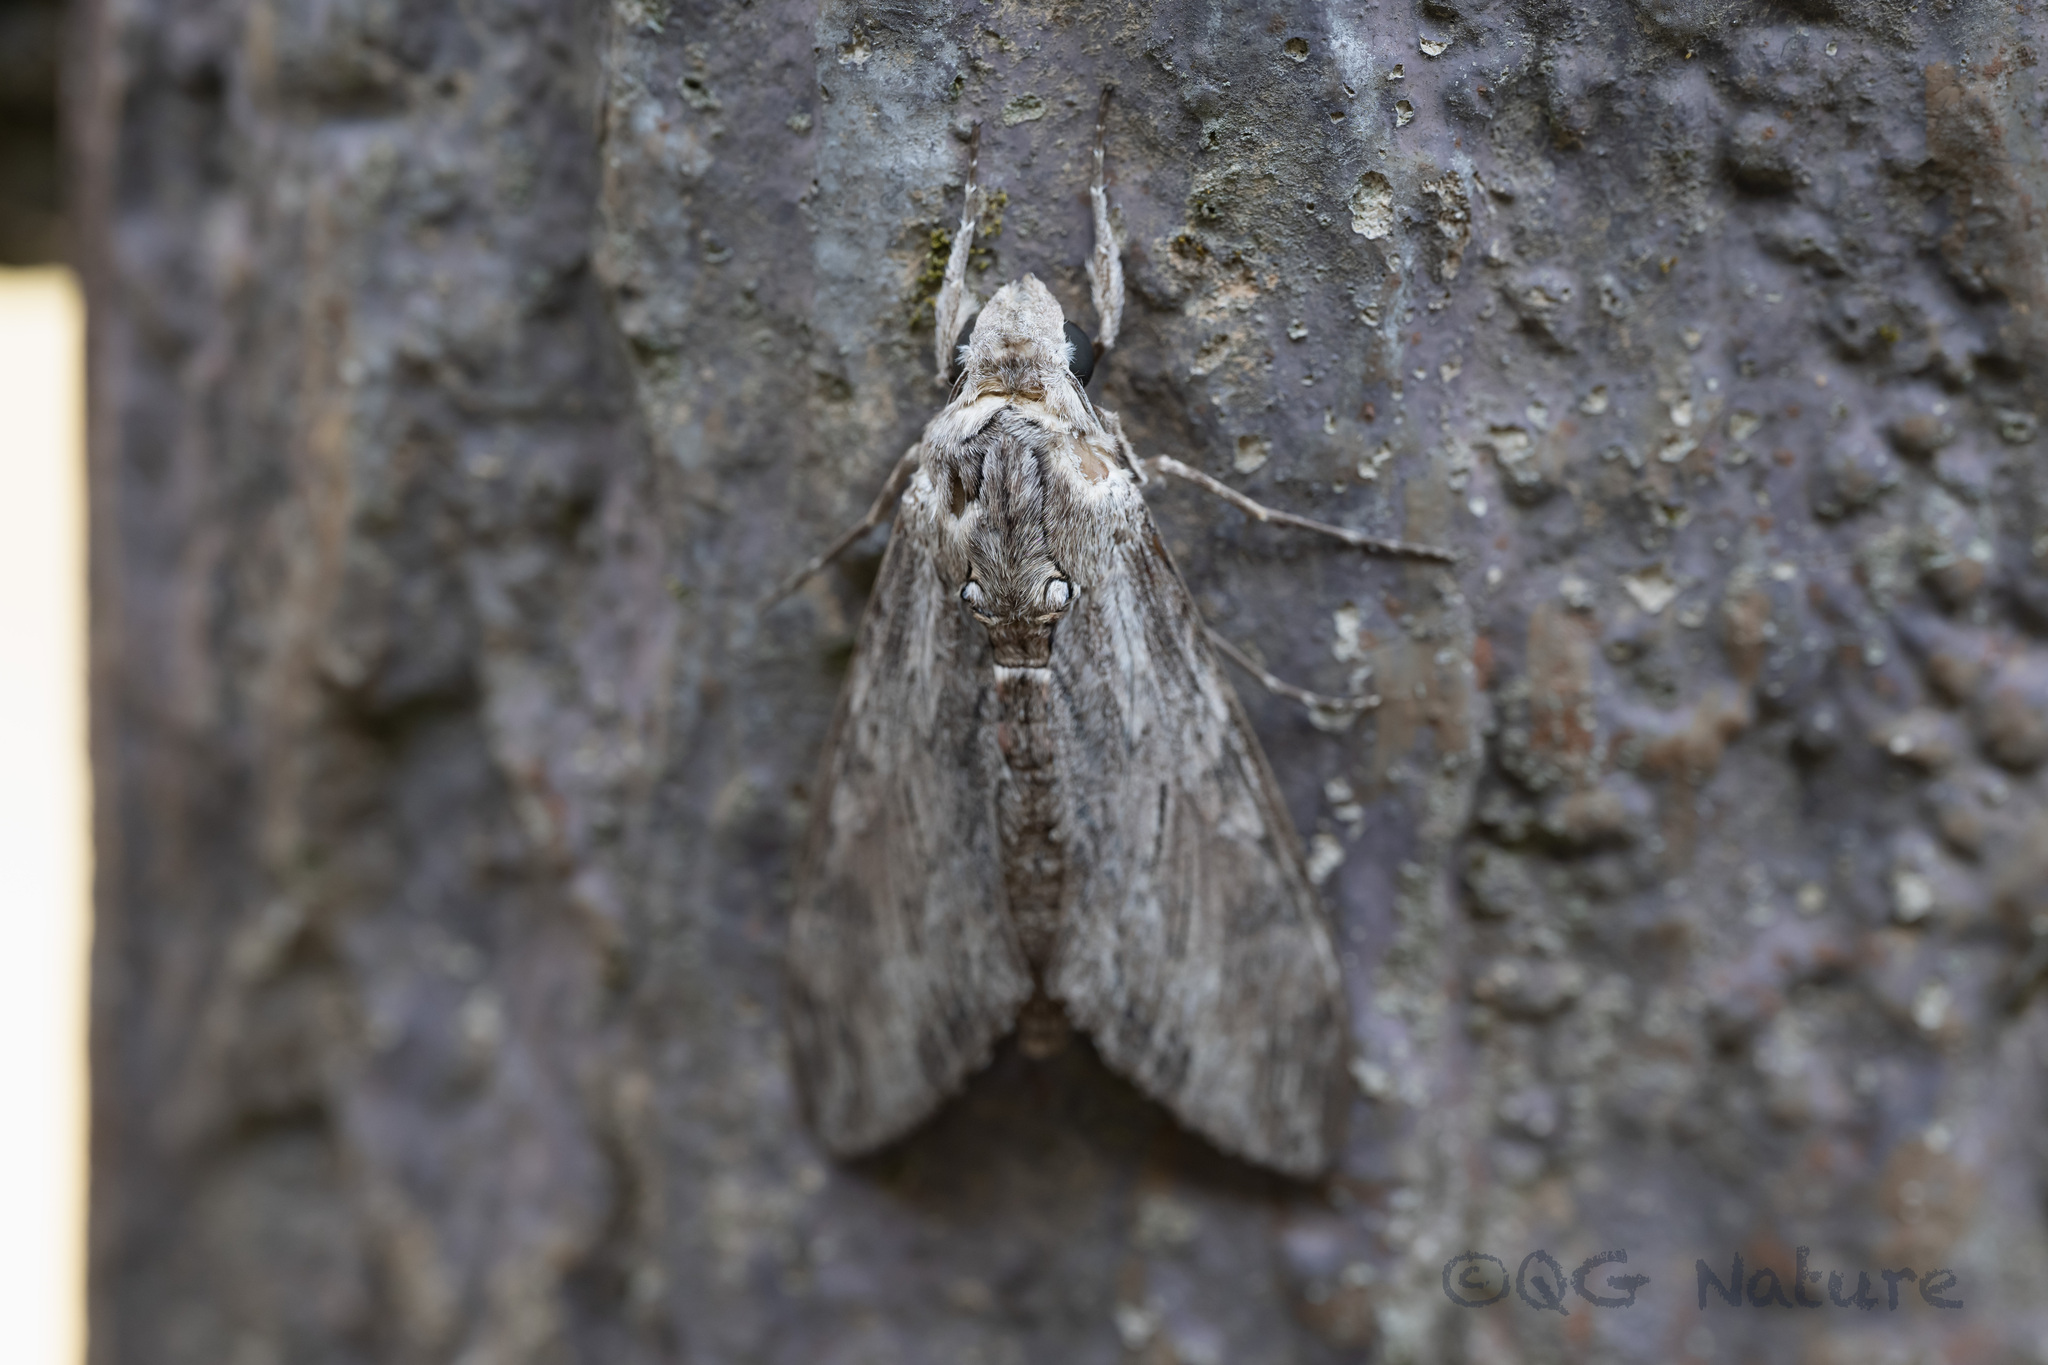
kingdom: Animalia
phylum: Arthropoda
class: Insecta
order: Lepidoptera
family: Sphingidae
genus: Agrius
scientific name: Agrius convolvuli
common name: Convolvulus hawkmoth
